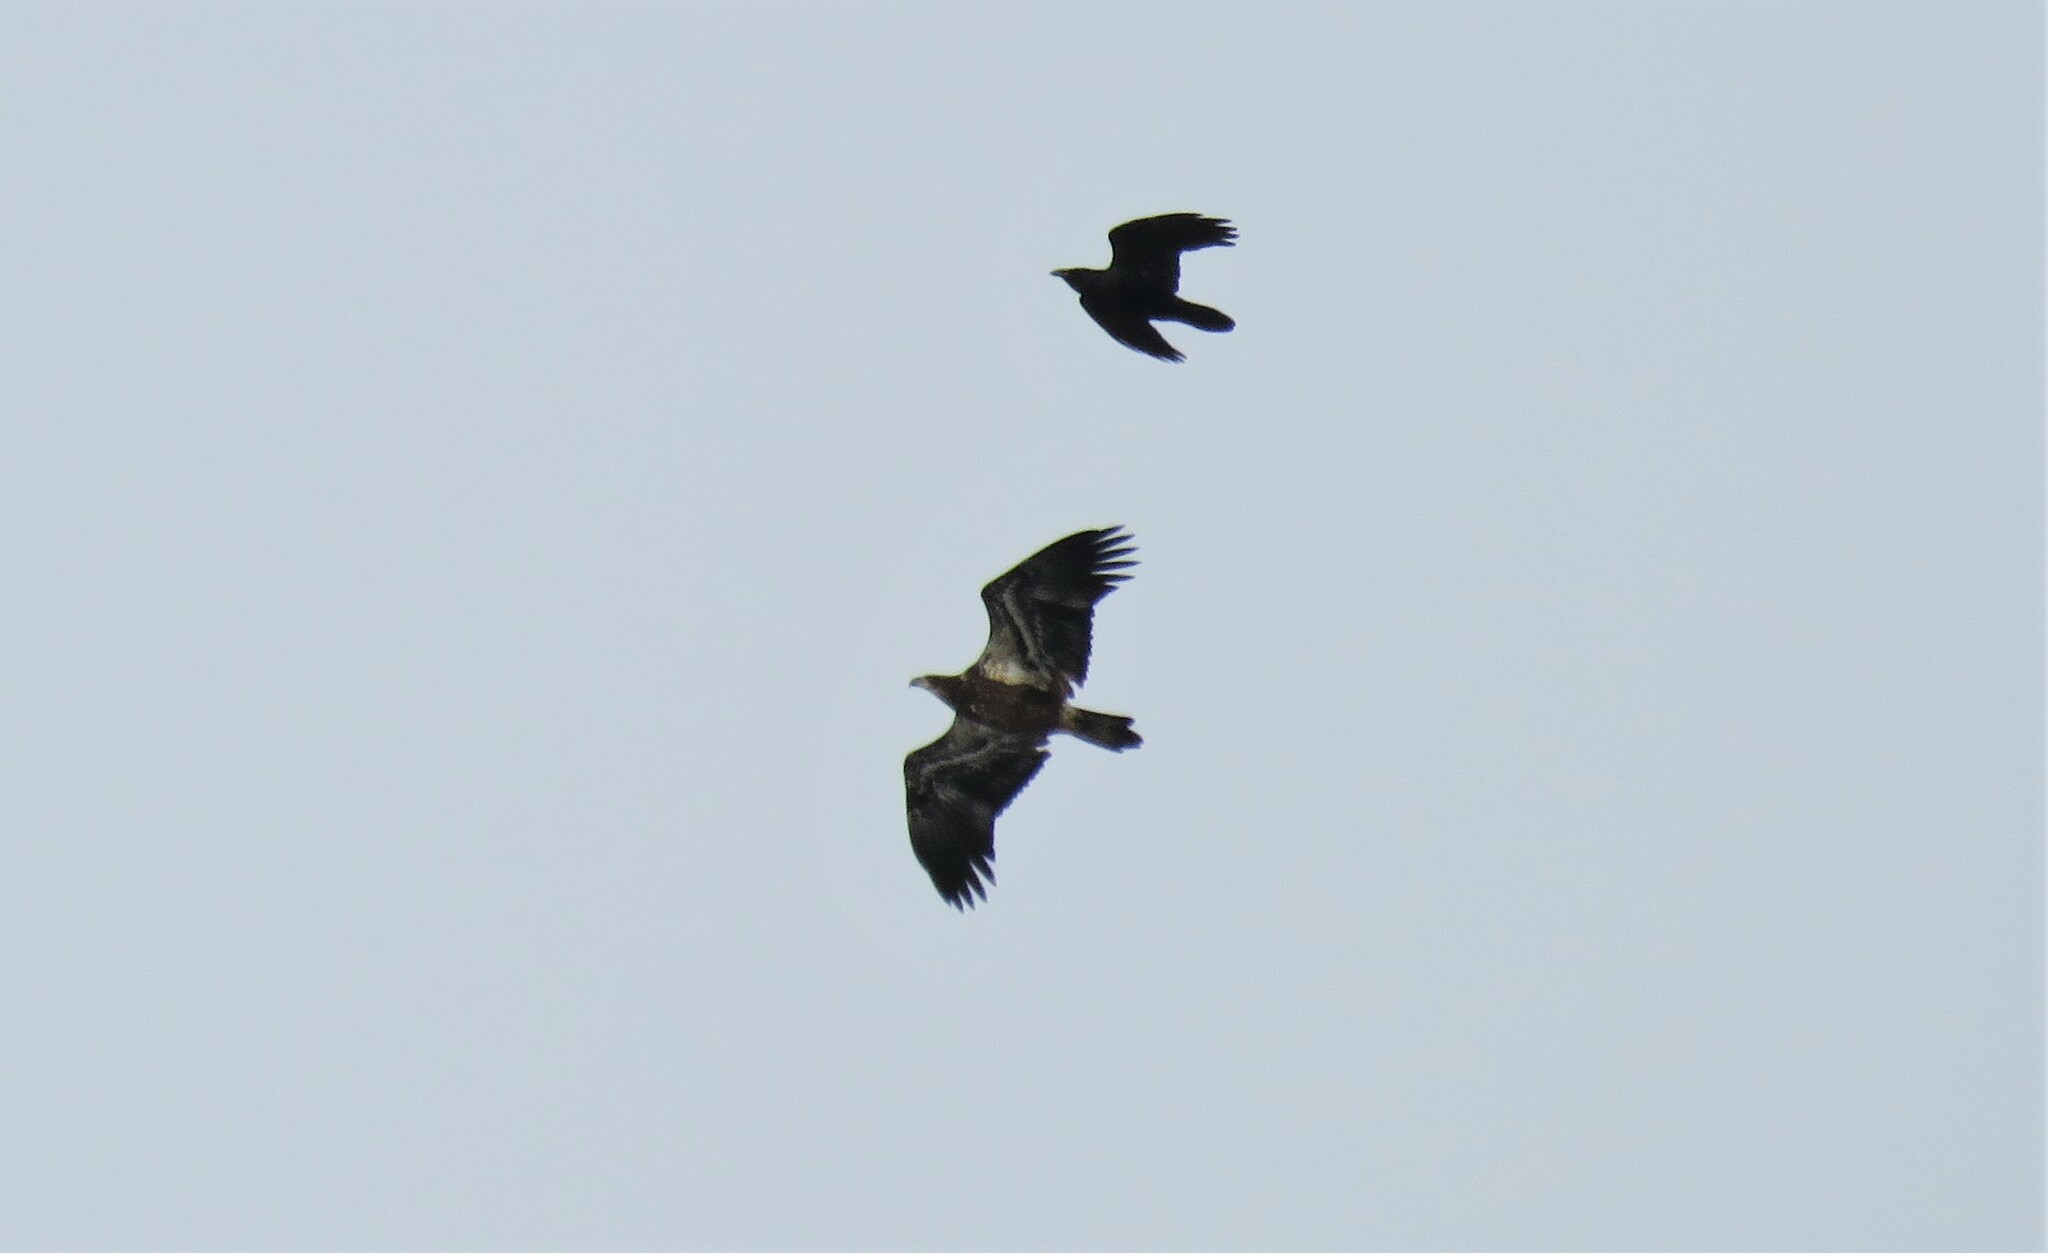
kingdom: Animalia
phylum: Chordata
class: Aves
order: Accipitriformes
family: Accipitridae
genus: Haliaeetus
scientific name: Haliaeetus leucocephalus
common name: Bald eagle
